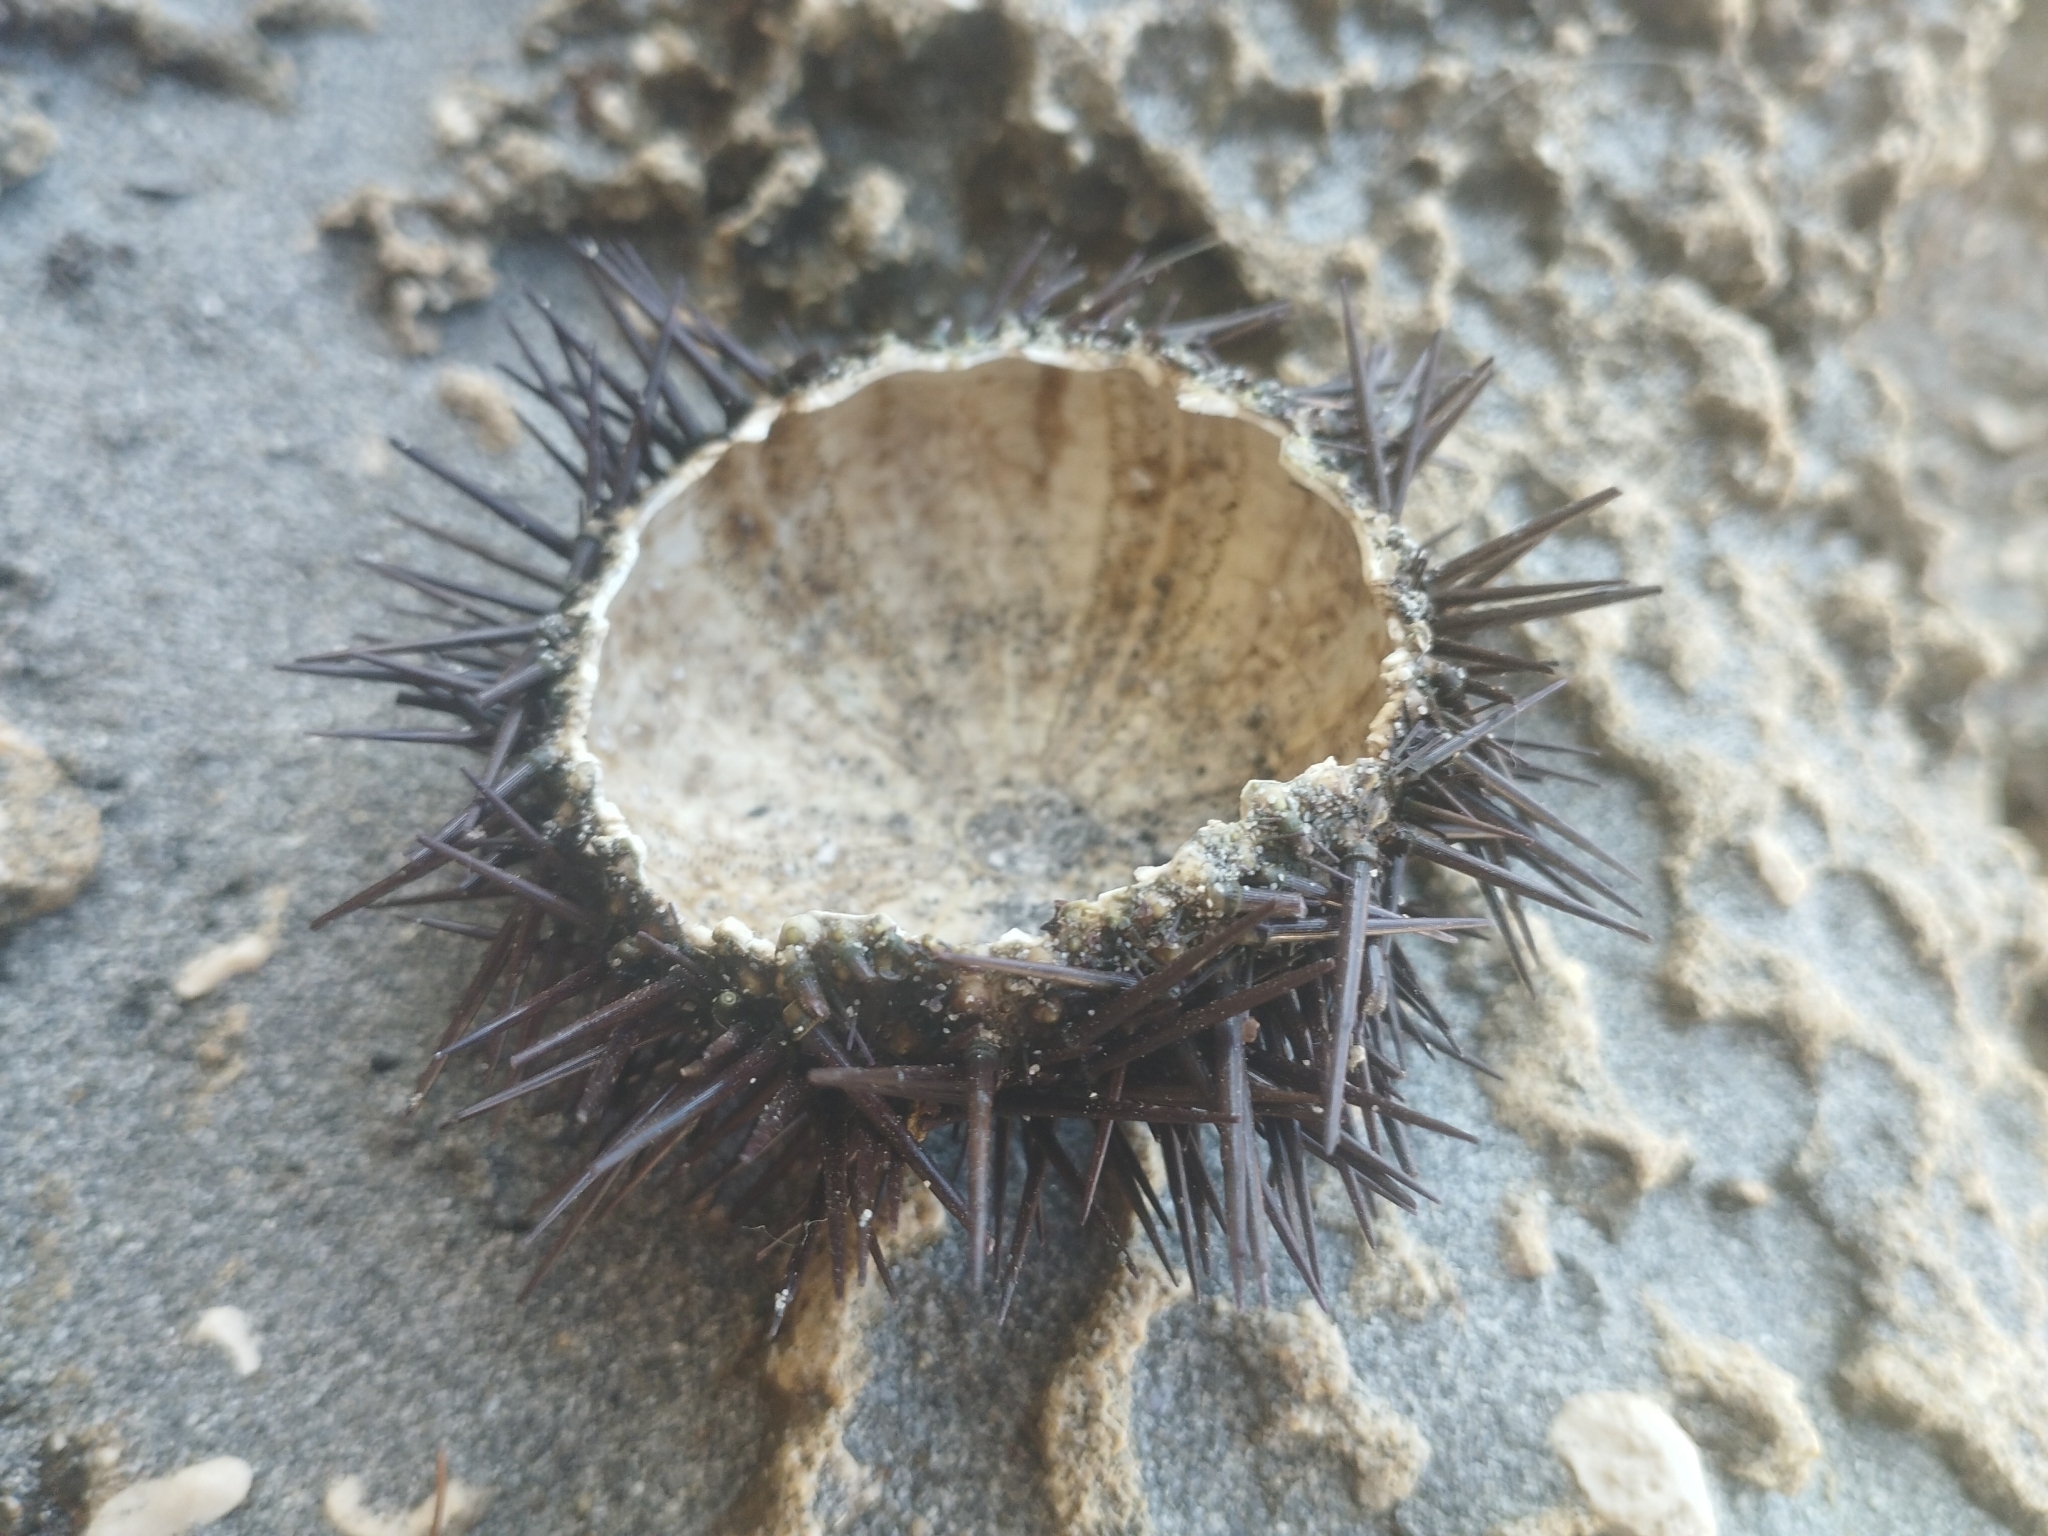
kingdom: Animalia
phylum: Echinodermata
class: Echinoidea
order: Camarodonta
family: Parechinidae
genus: Paracentrotus
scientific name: Paracentrotus lividus
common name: Purple sea urchin
